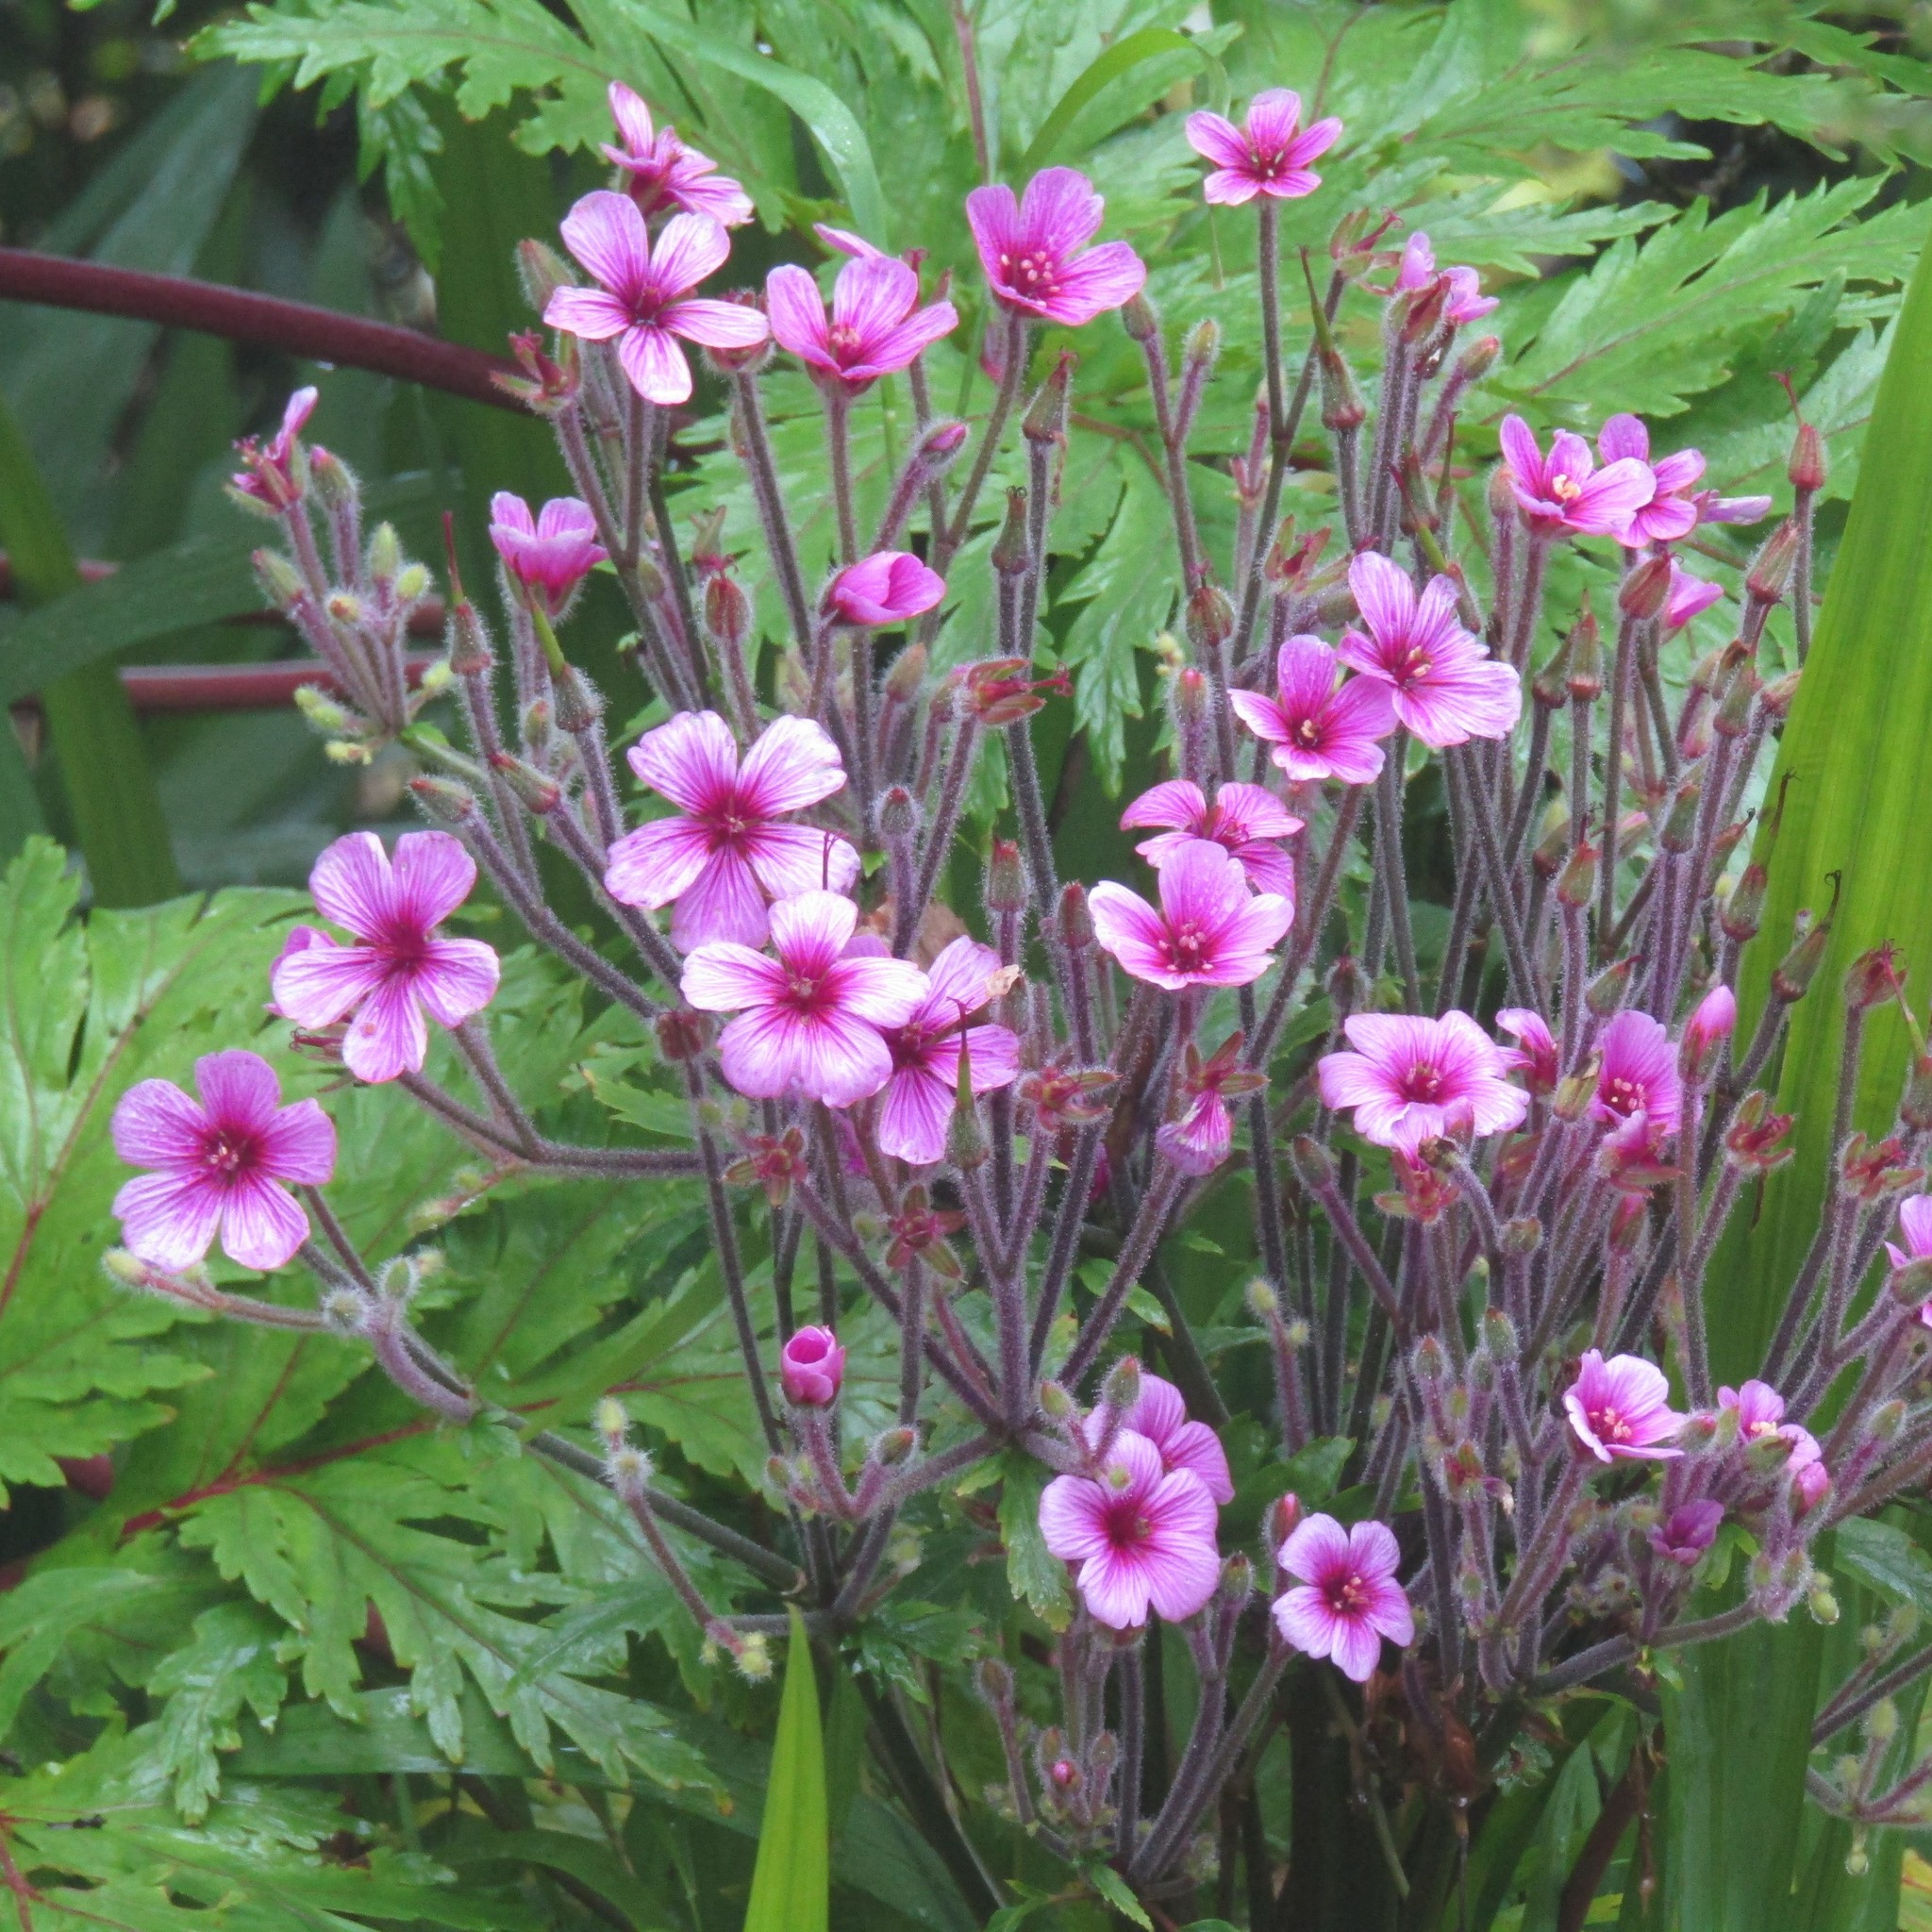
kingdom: Plantae
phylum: Tracheophyta
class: Magnoliopsida
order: Geraniales
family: Geraniaceae
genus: Geranium
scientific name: Geranium maderense
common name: Giant herb-robert
